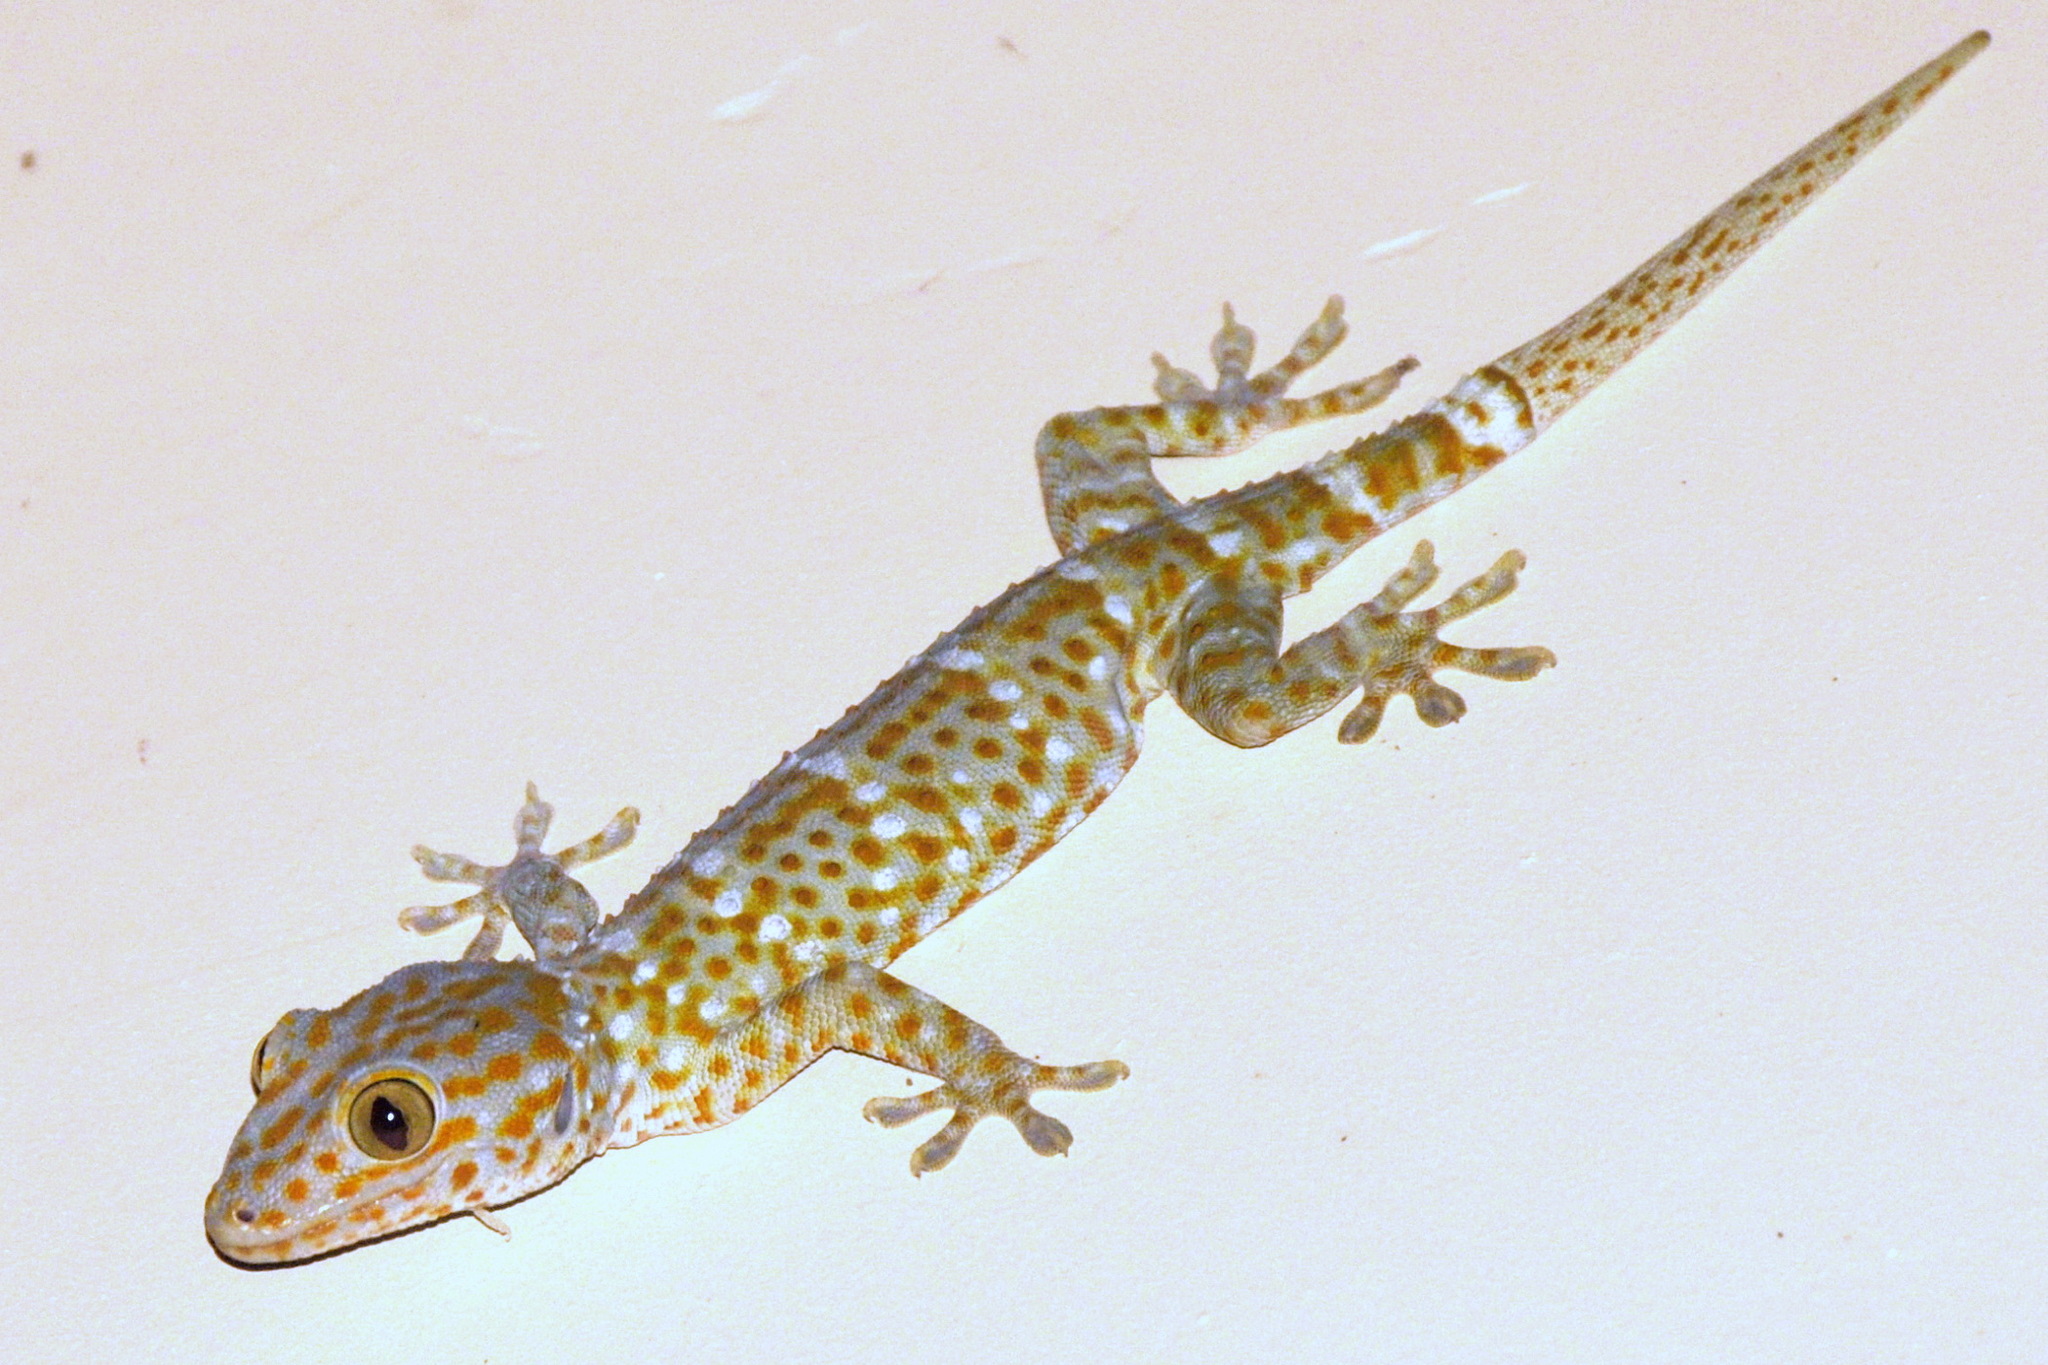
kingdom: Animalia
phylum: Chordata
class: Squamata
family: Gekkonidae
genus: Gekko
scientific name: Gekko gecko
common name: Tokay gecko
